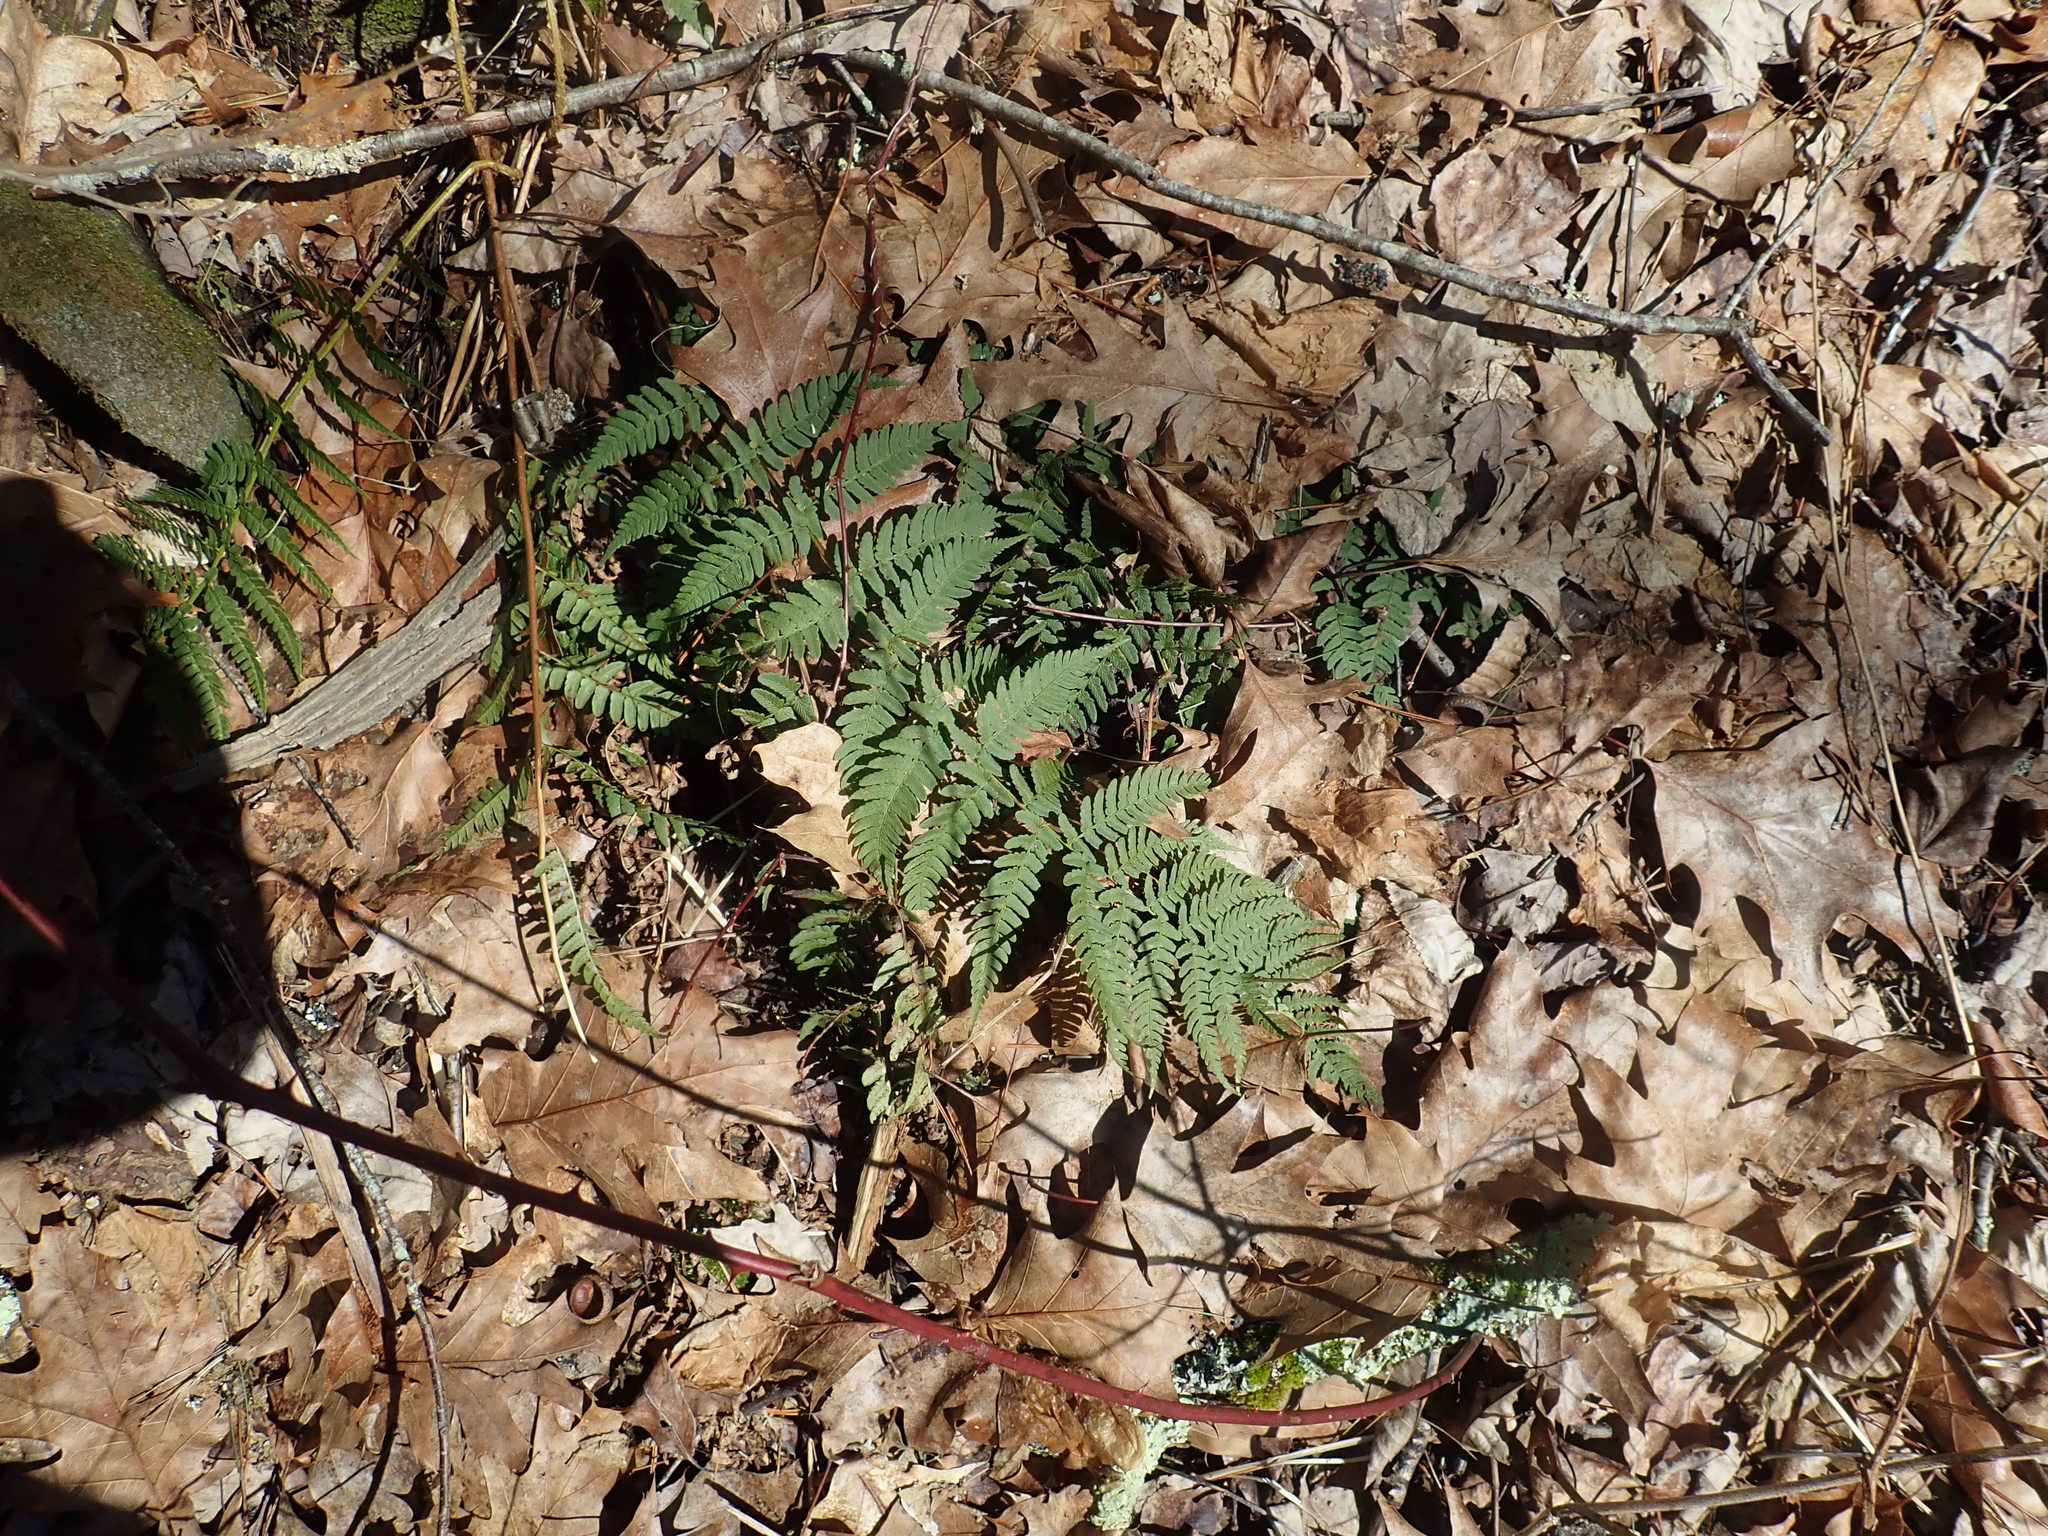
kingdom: Plantae
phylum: Tracheophyta
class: Polypodiopsida
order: Polypodiales
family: Dryopteridaceae
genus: Dryopteris
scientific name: Dryopteris marginalis
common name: Marginal wood fern
